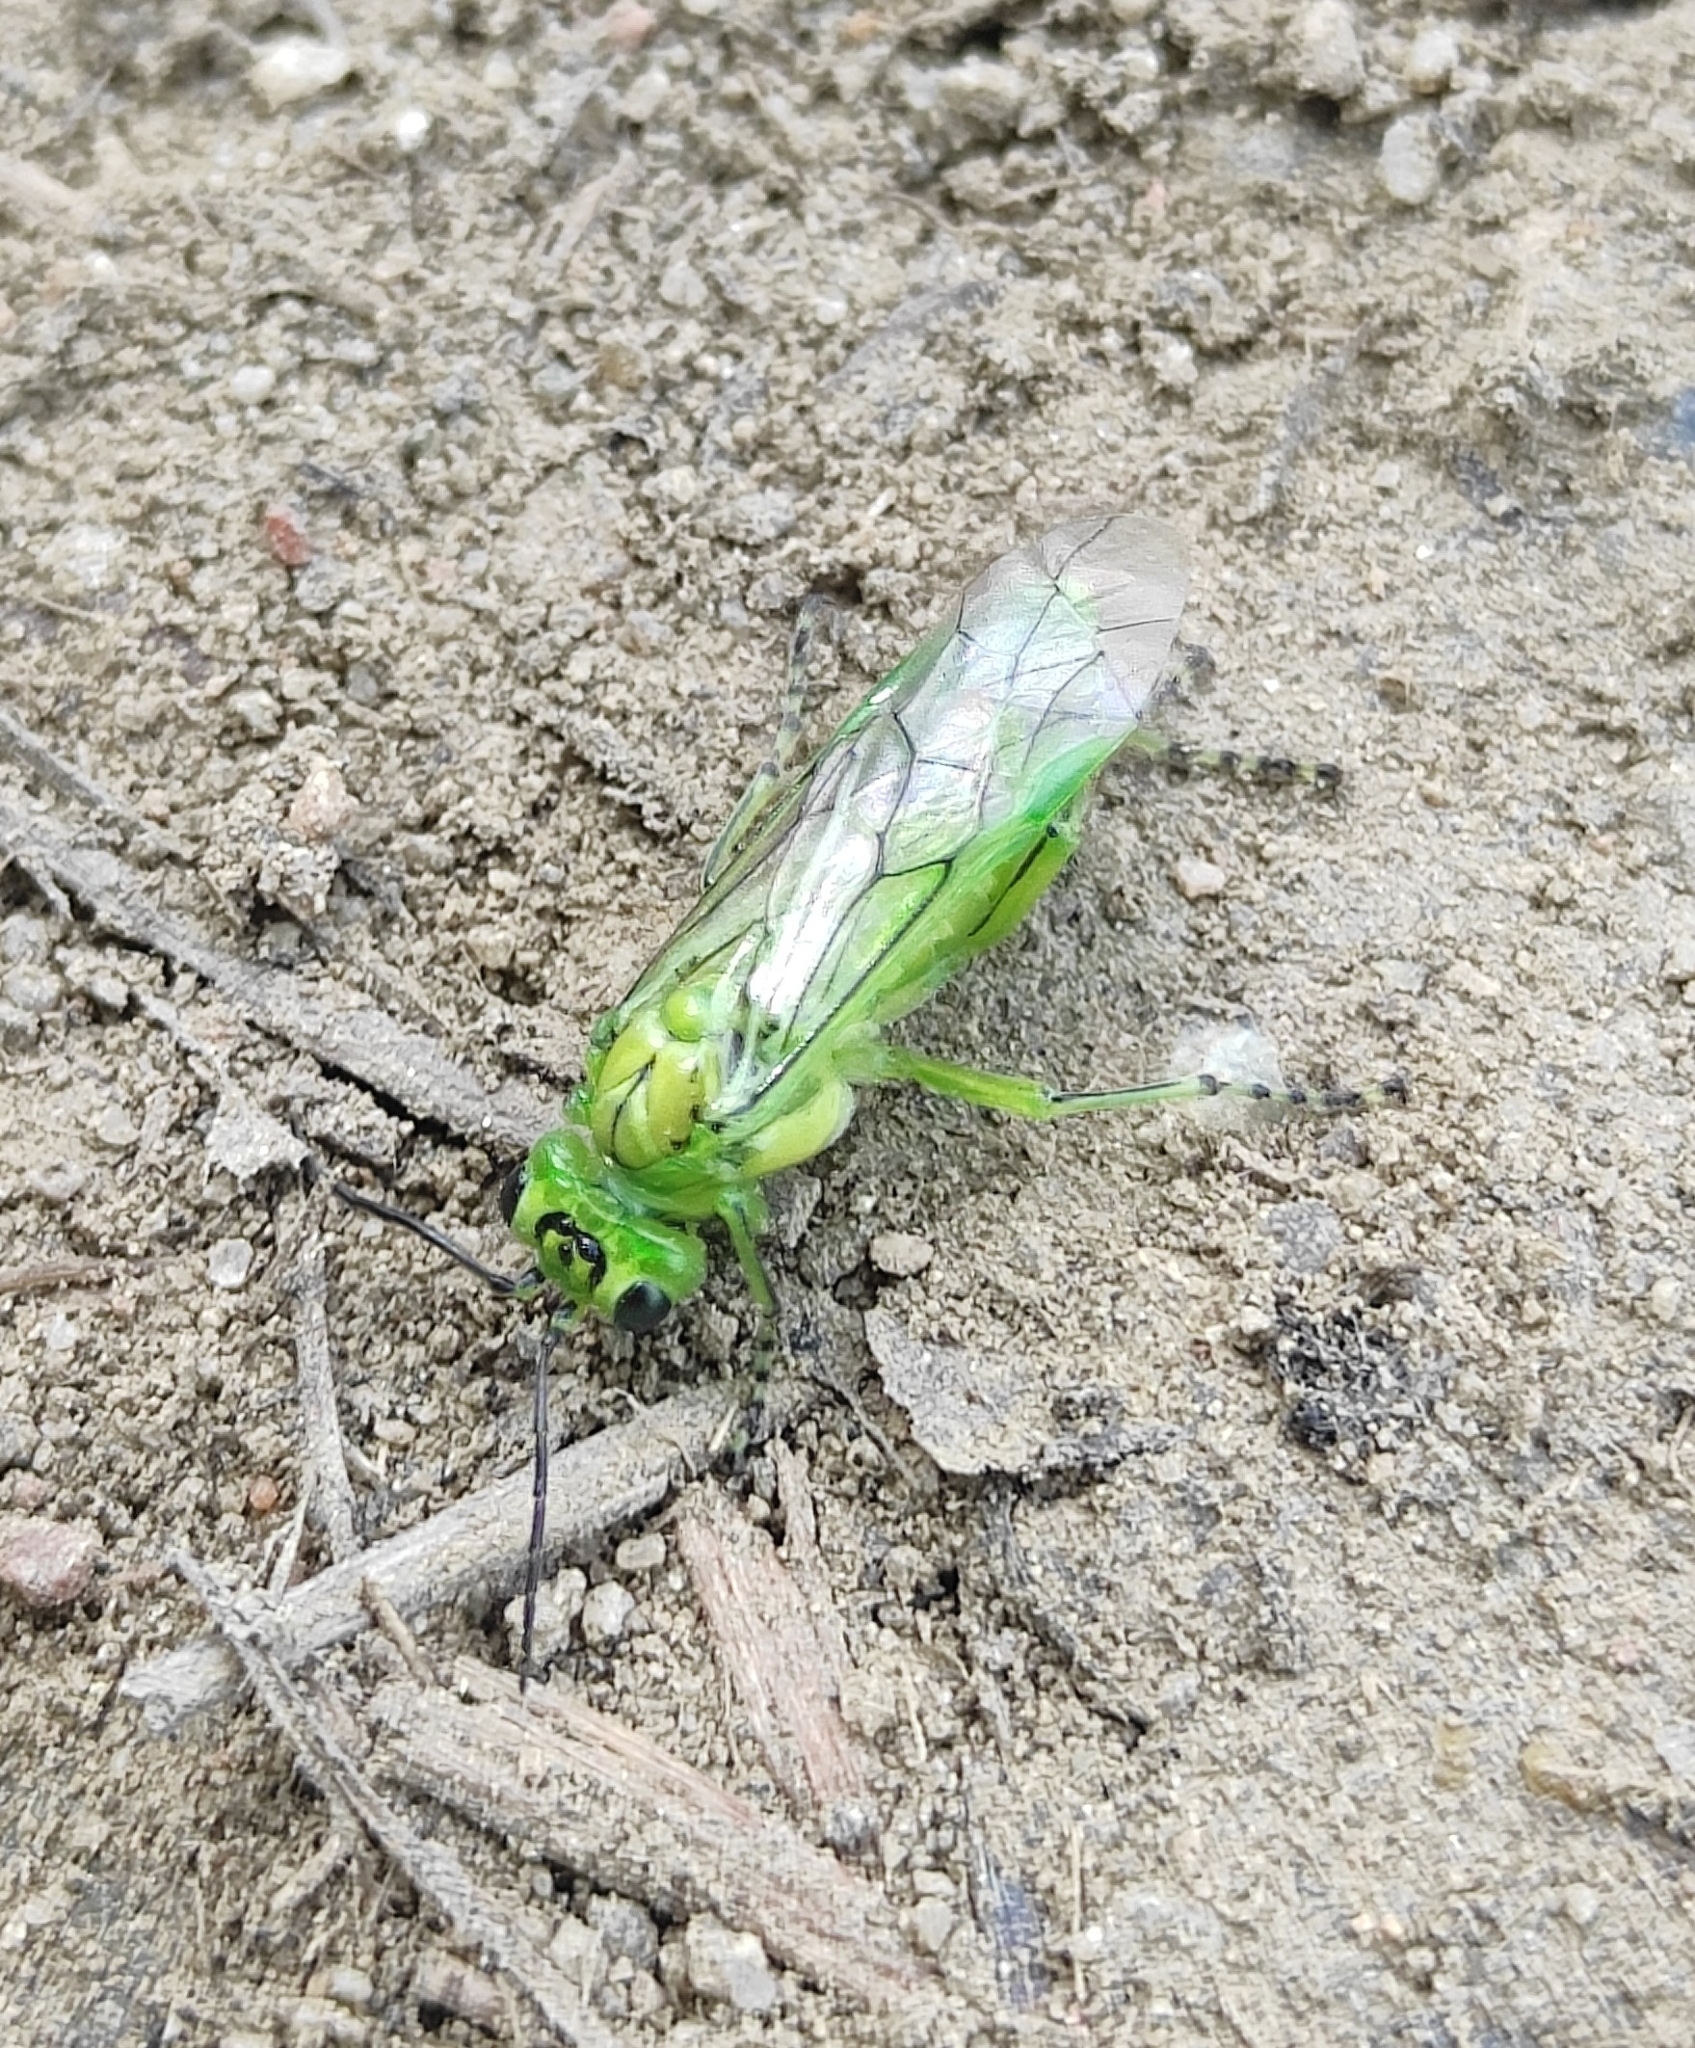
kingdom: Animalia
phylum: Arthropoda
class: Insecta
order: Hymenoptera
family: Tenthredinidae
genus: Rhogogaster
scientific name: Rhogogaster sibirica
